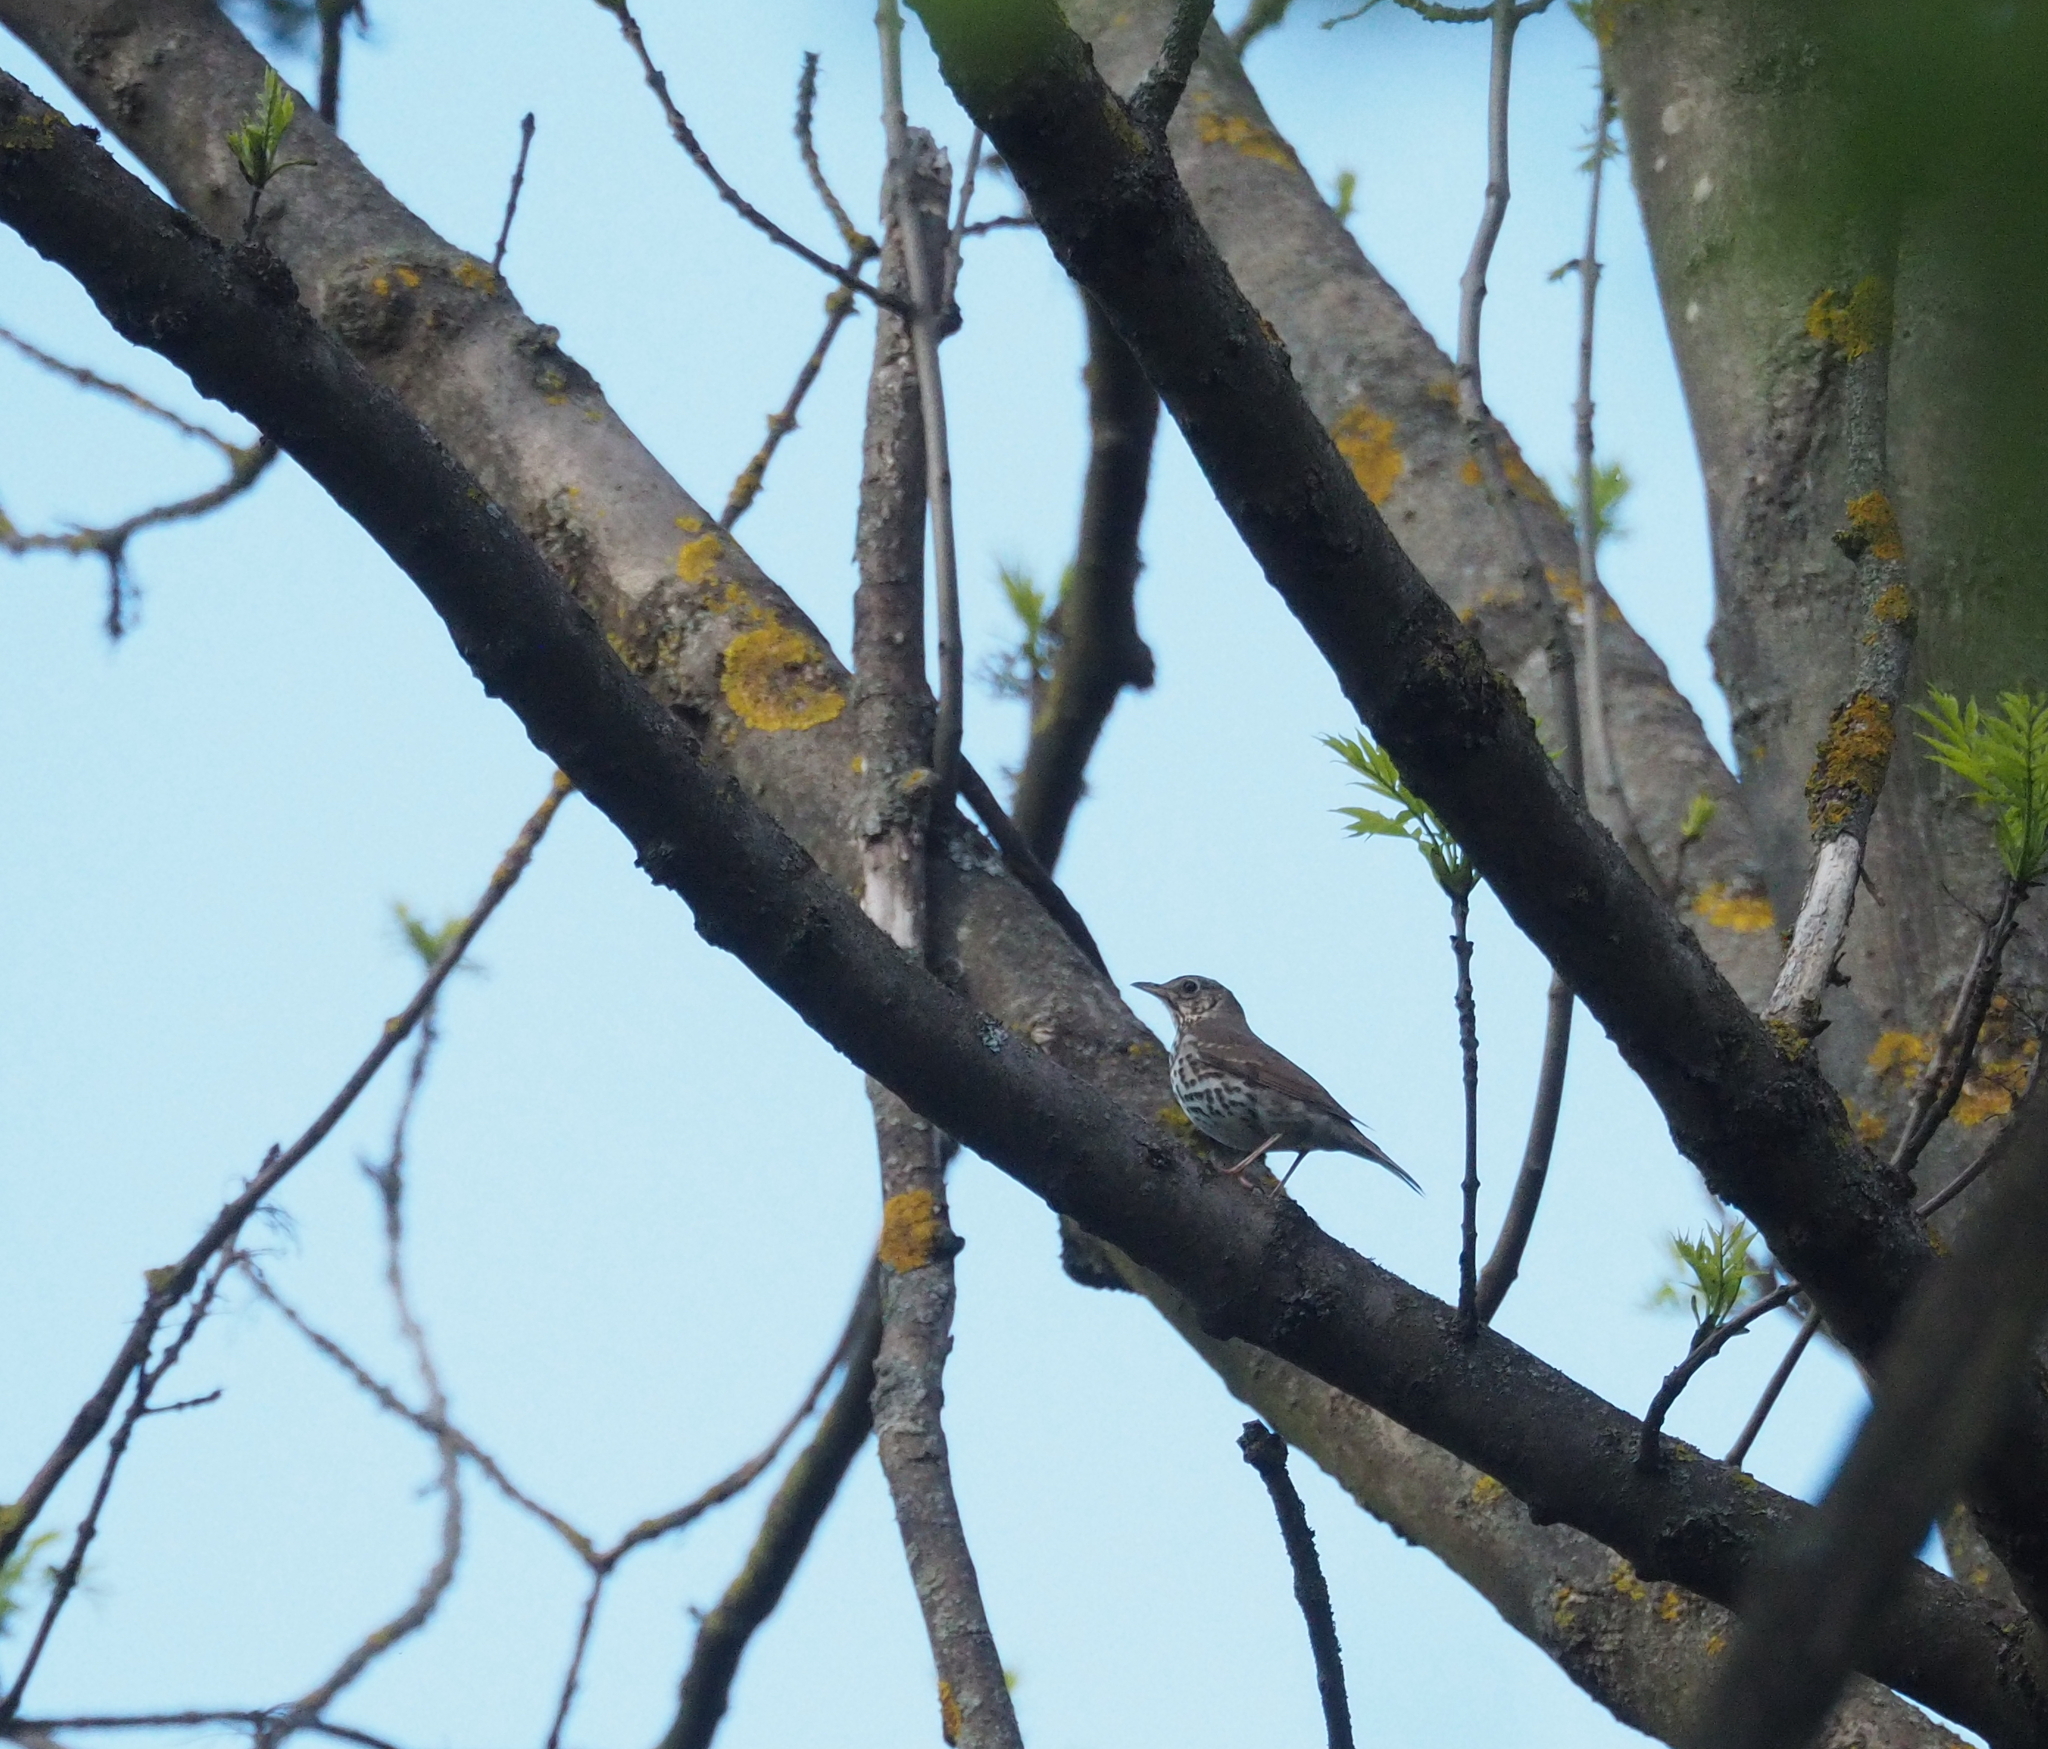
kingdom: Animalia
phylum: Chordata
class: Aves
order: Passeriformes
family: Turdidae
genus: Turdus
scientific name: Turdus philomelos
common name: Song thrush
